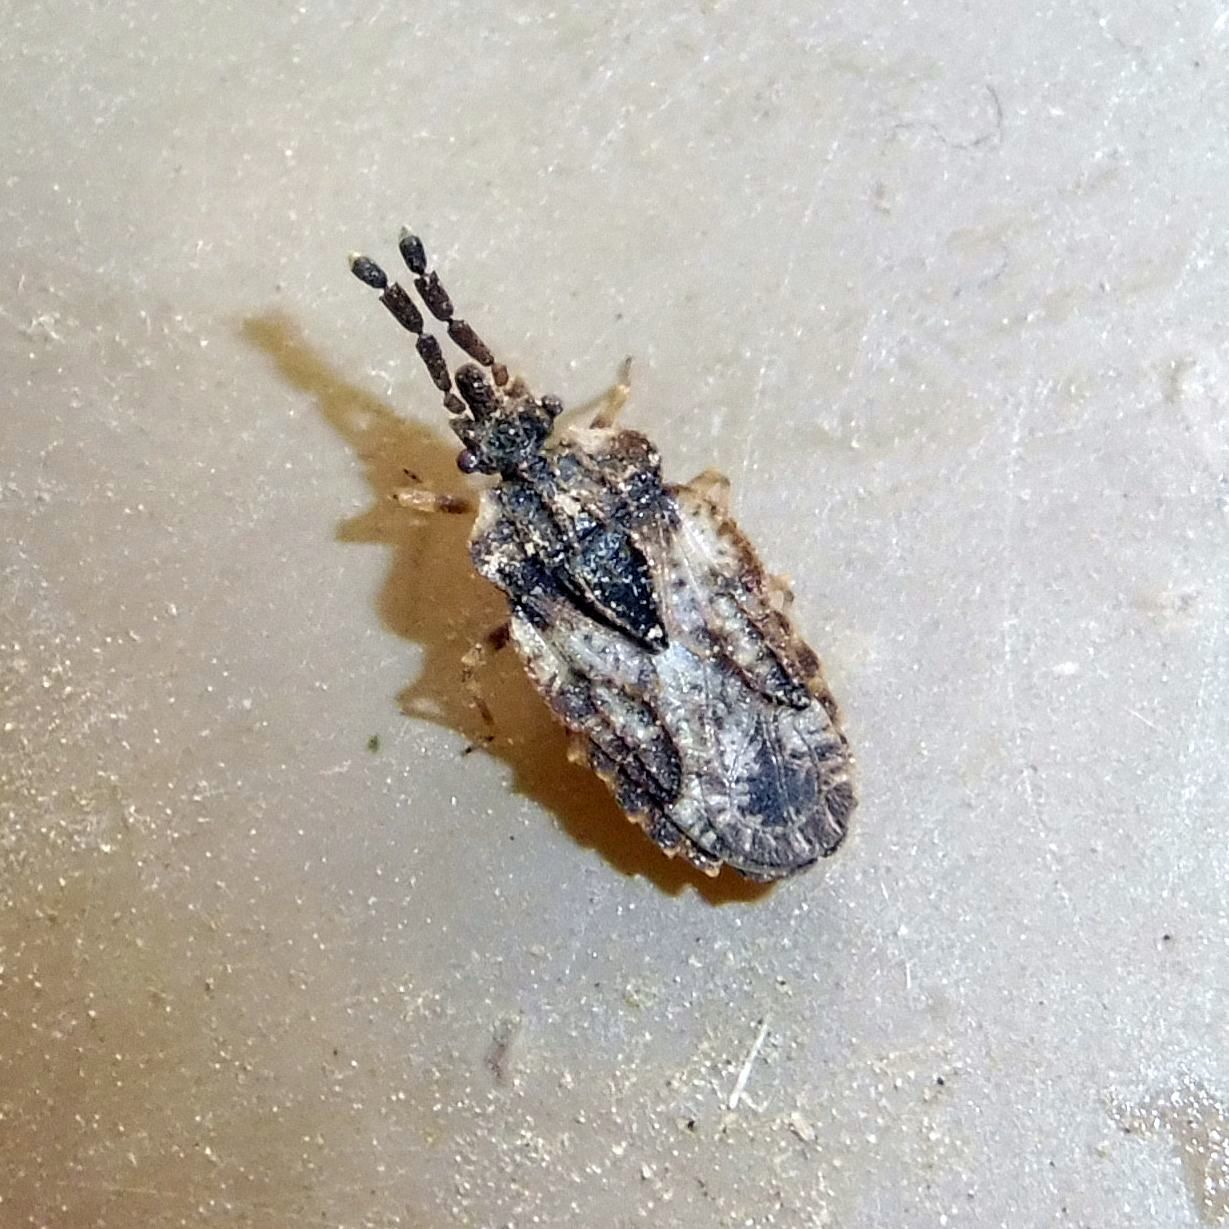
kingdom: Animalia
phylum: Arthropoda
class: Insecta
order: Hemiptera
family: Aradidae
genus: Aradus
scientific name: Aradus depressus
